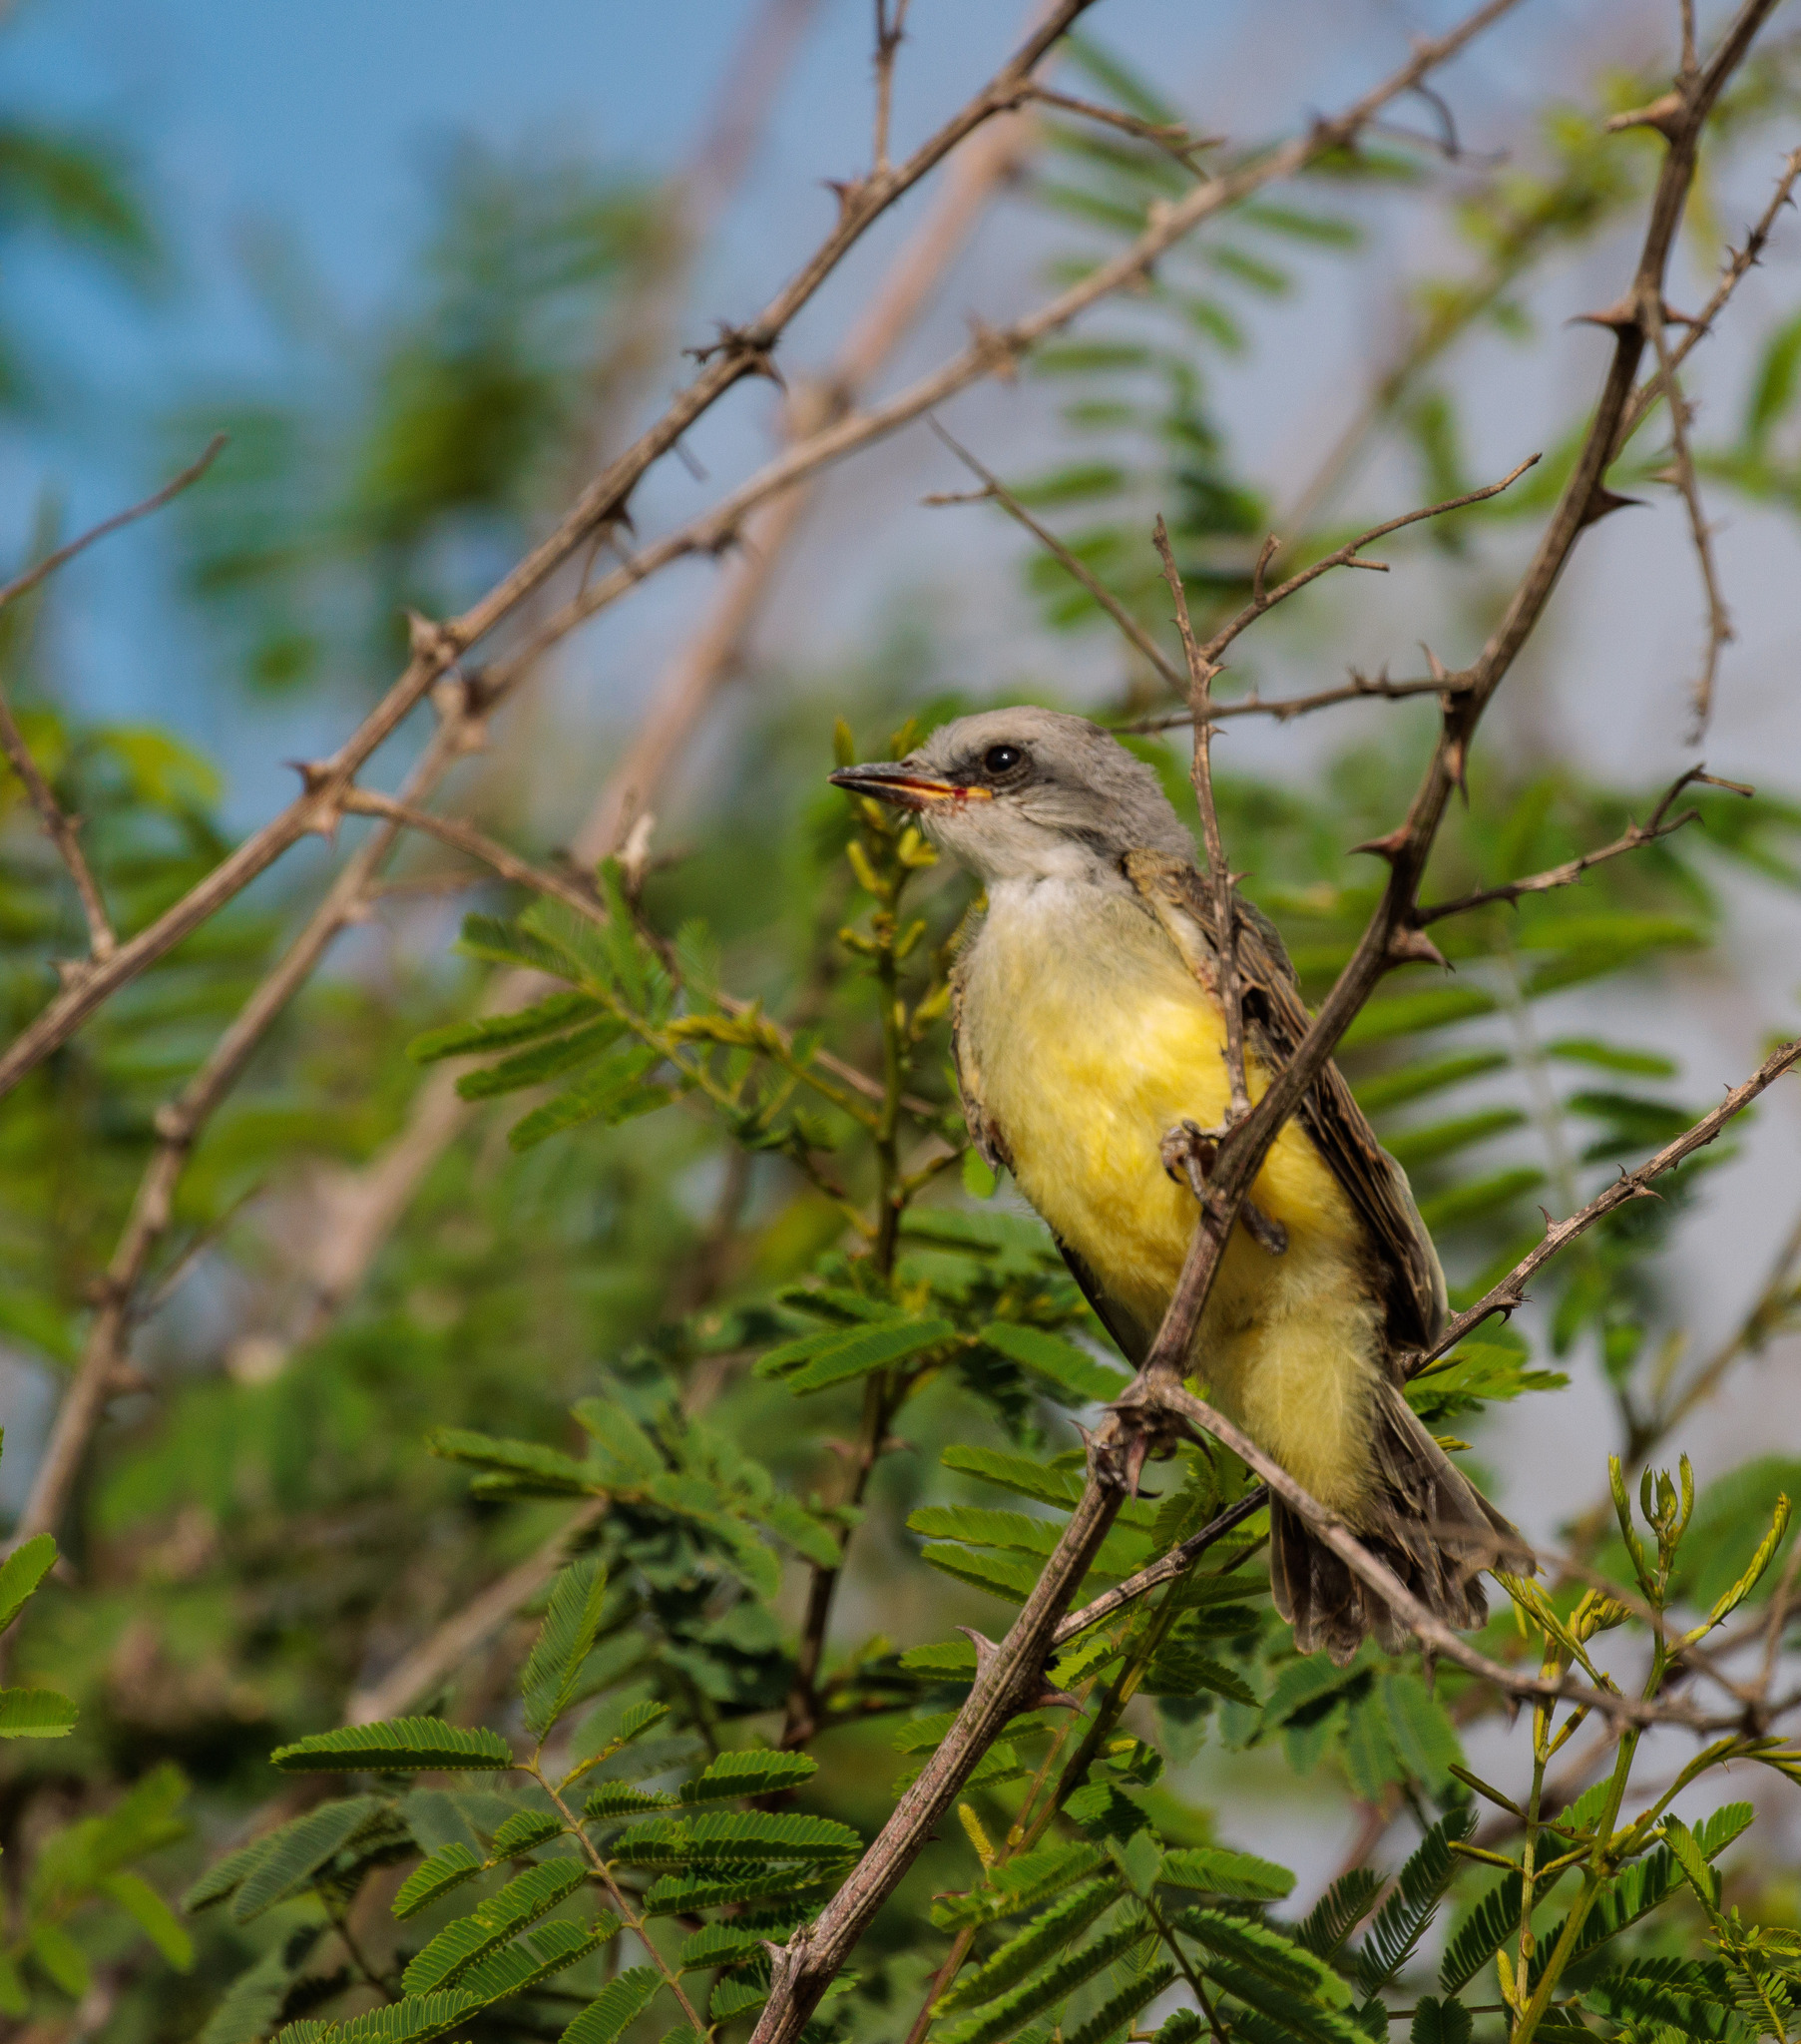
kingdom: Animalia
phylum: Chordata
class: Aves
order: Passeriformes
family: Tyrannidae
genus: Tyrannus
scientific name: Tyrannus melancholicus
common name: Tropical kingbird
